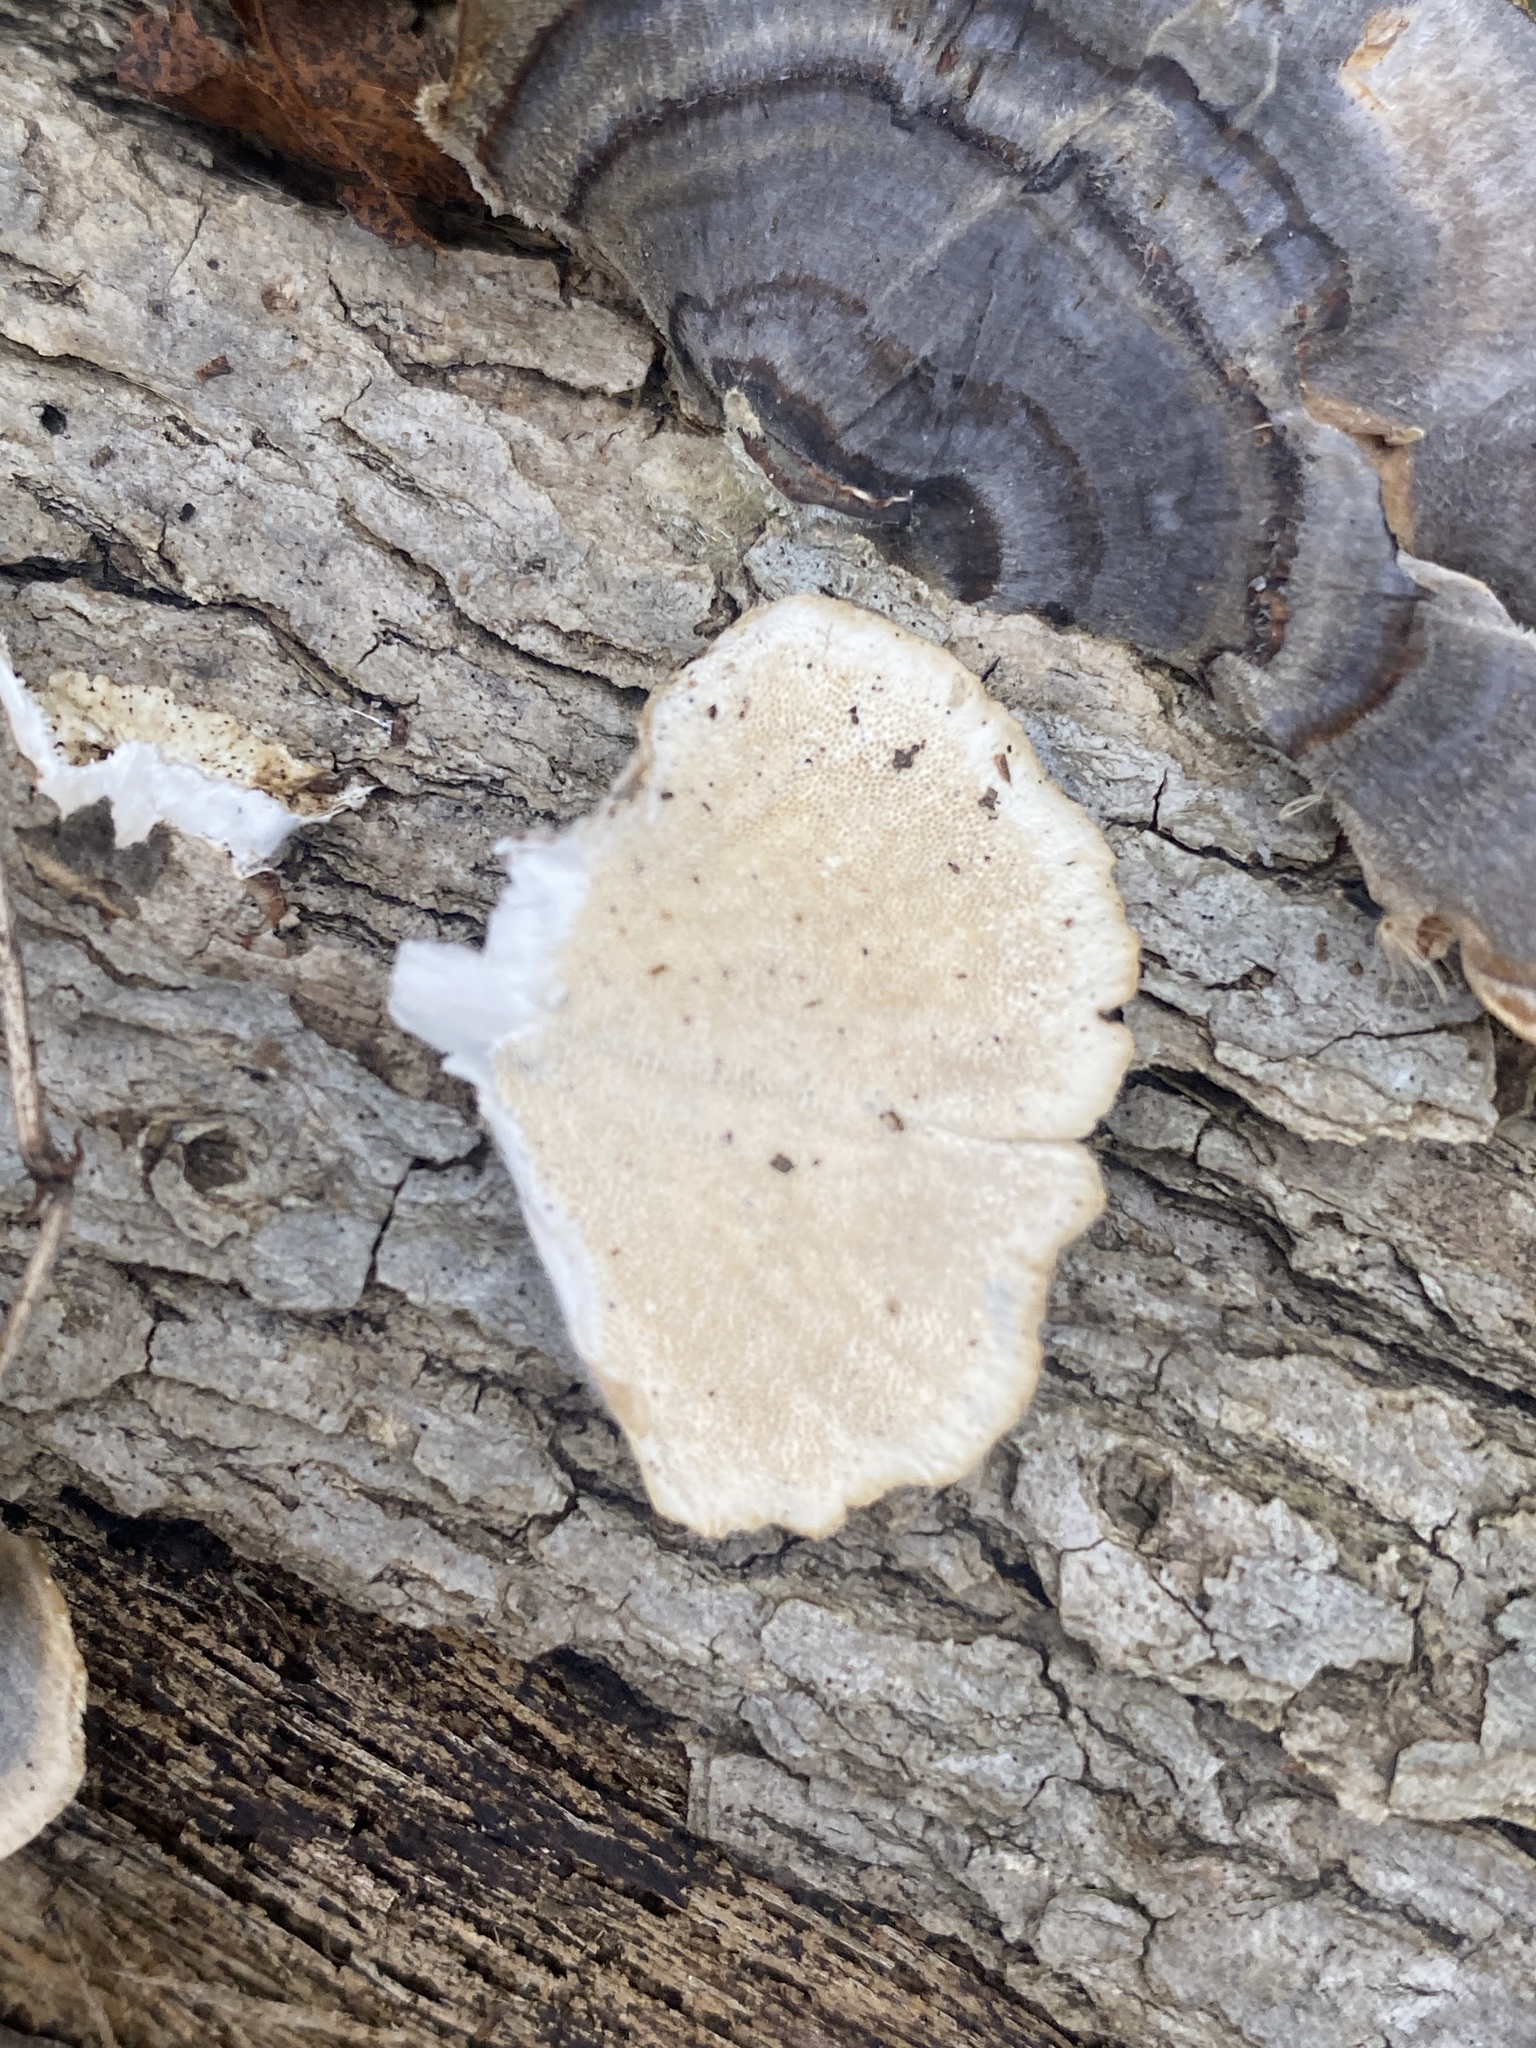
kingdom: Fungi
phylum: Basidiomycota
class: Agaricomycetes
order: Polyporales
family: Polyporaceae
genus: Trametes
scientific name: Trametes versicolor
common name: Turkeytail
